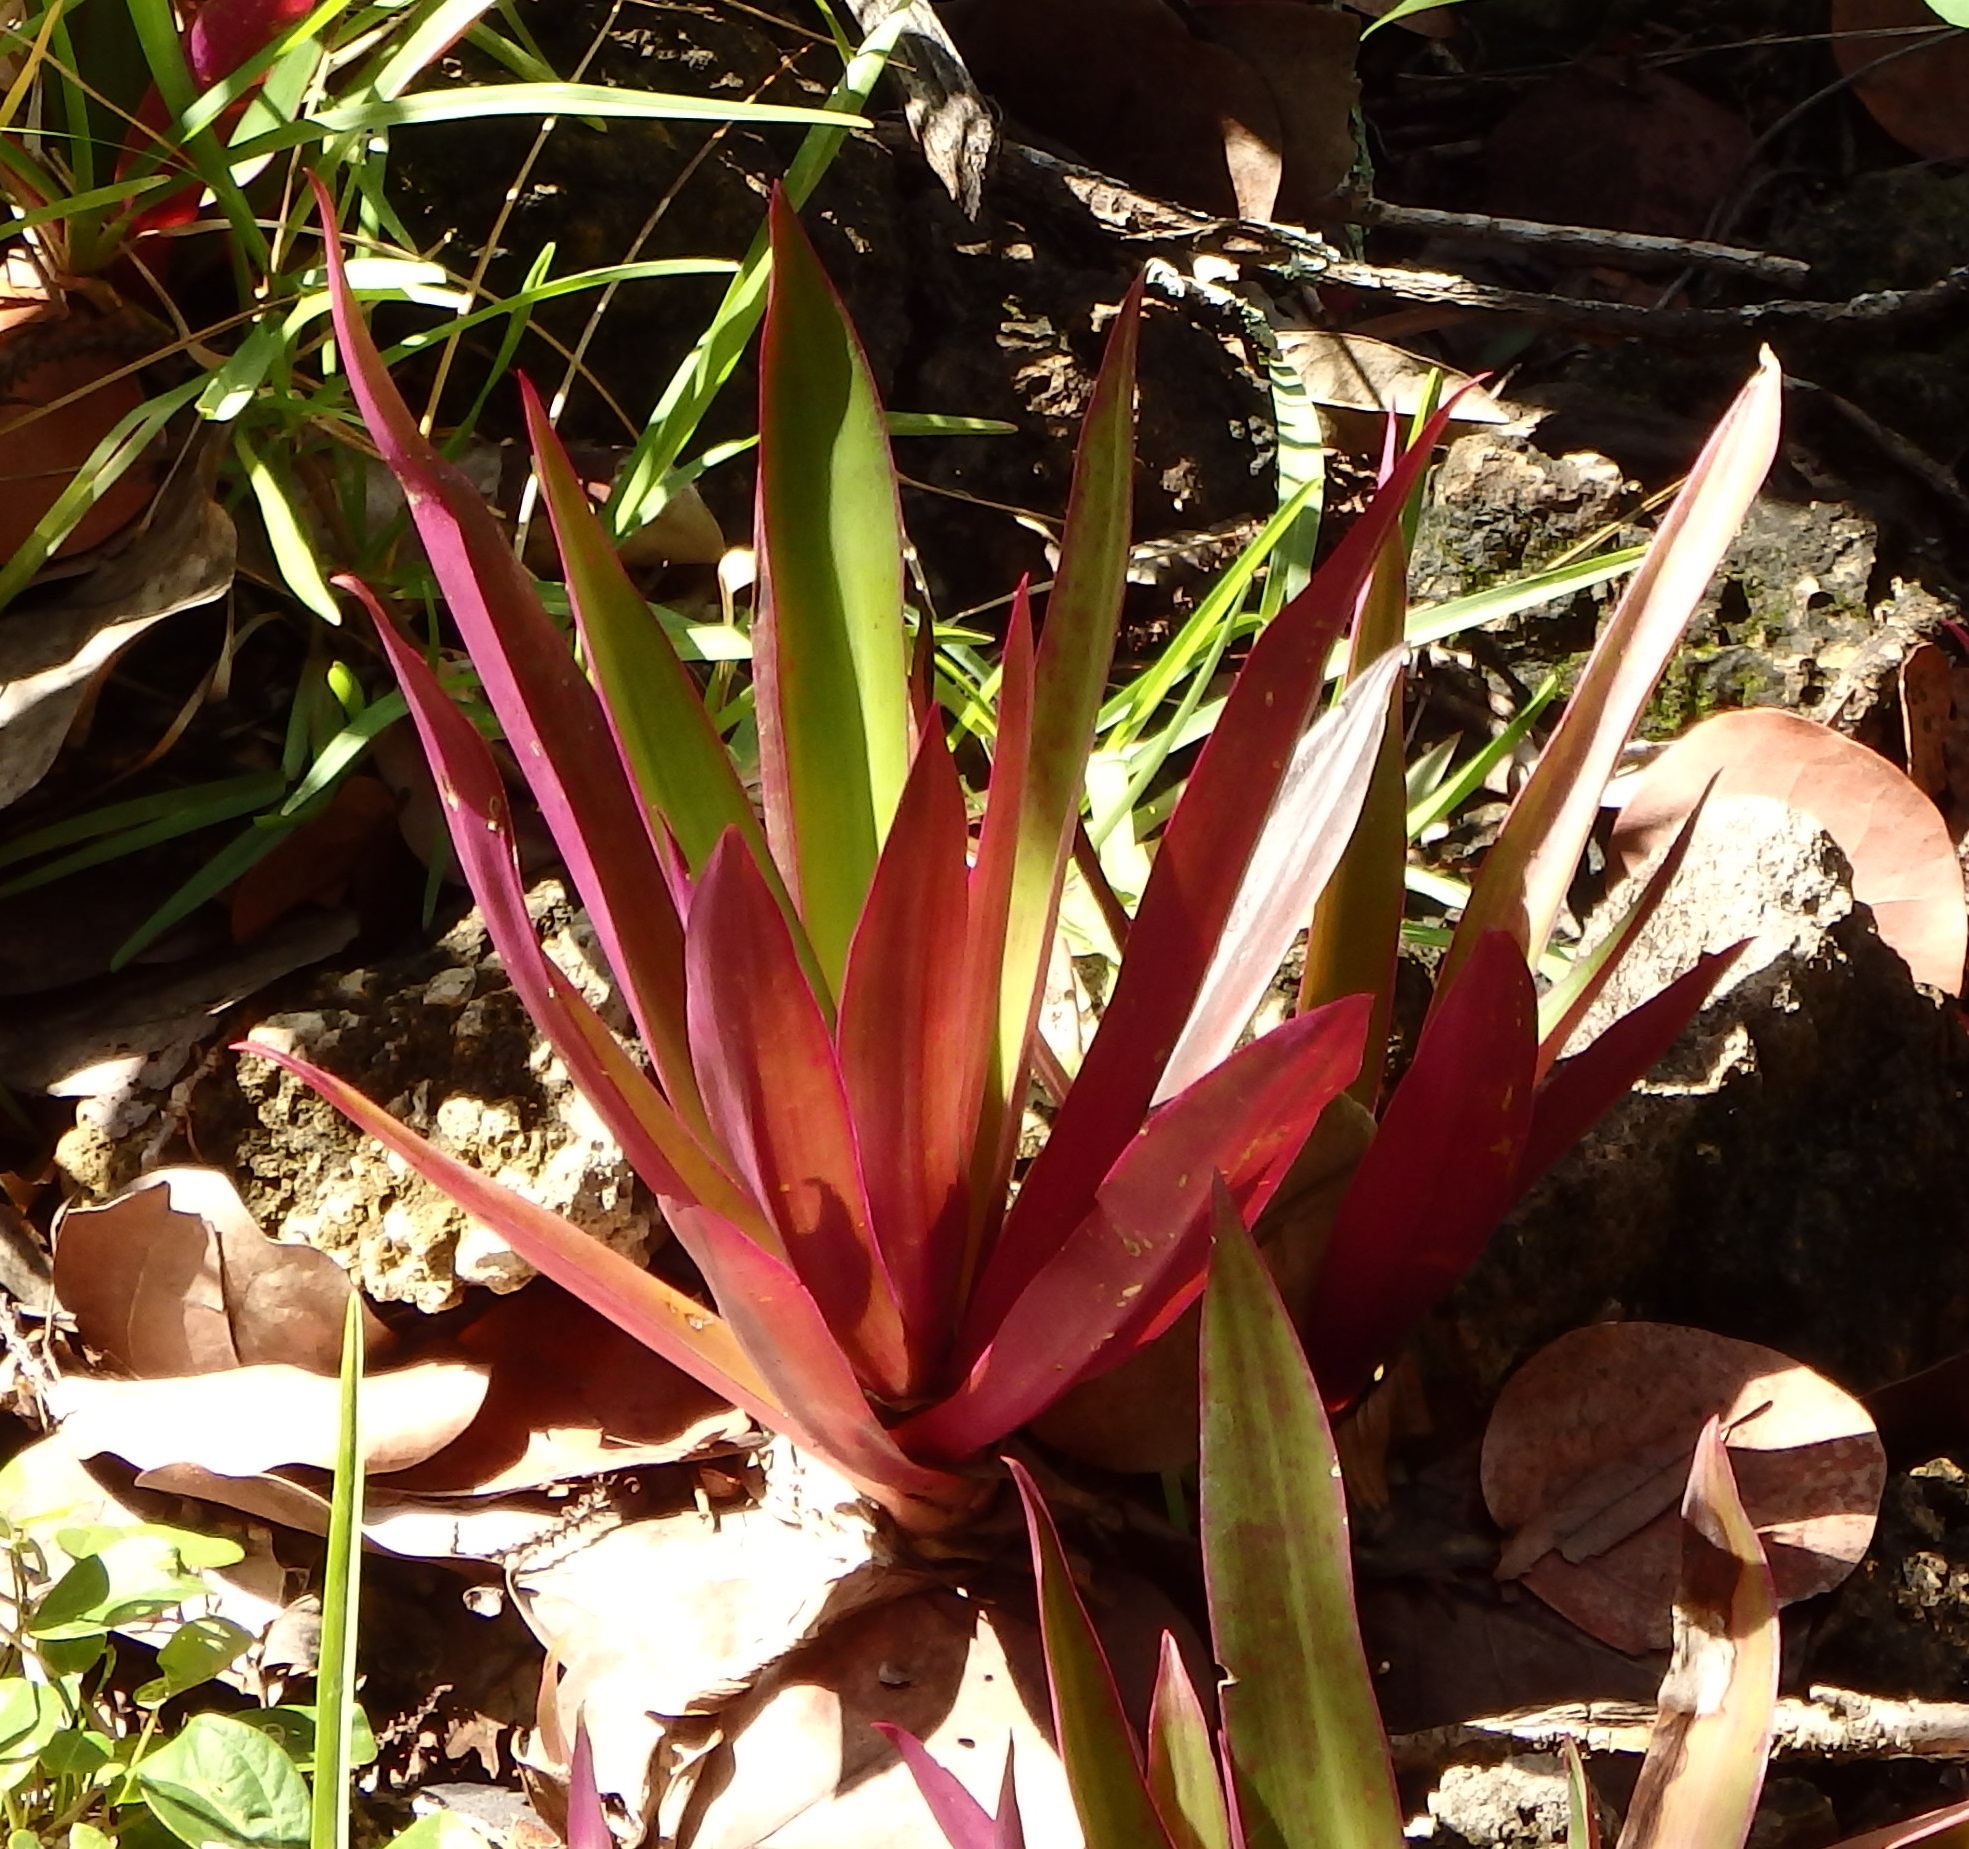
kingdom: Plantae
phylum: Tracheophyta
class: Liliopsida
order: Commelinales
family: Commelinaceae
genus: Tradescantia
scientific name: Tradescantia spathacea
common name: Boatlily
